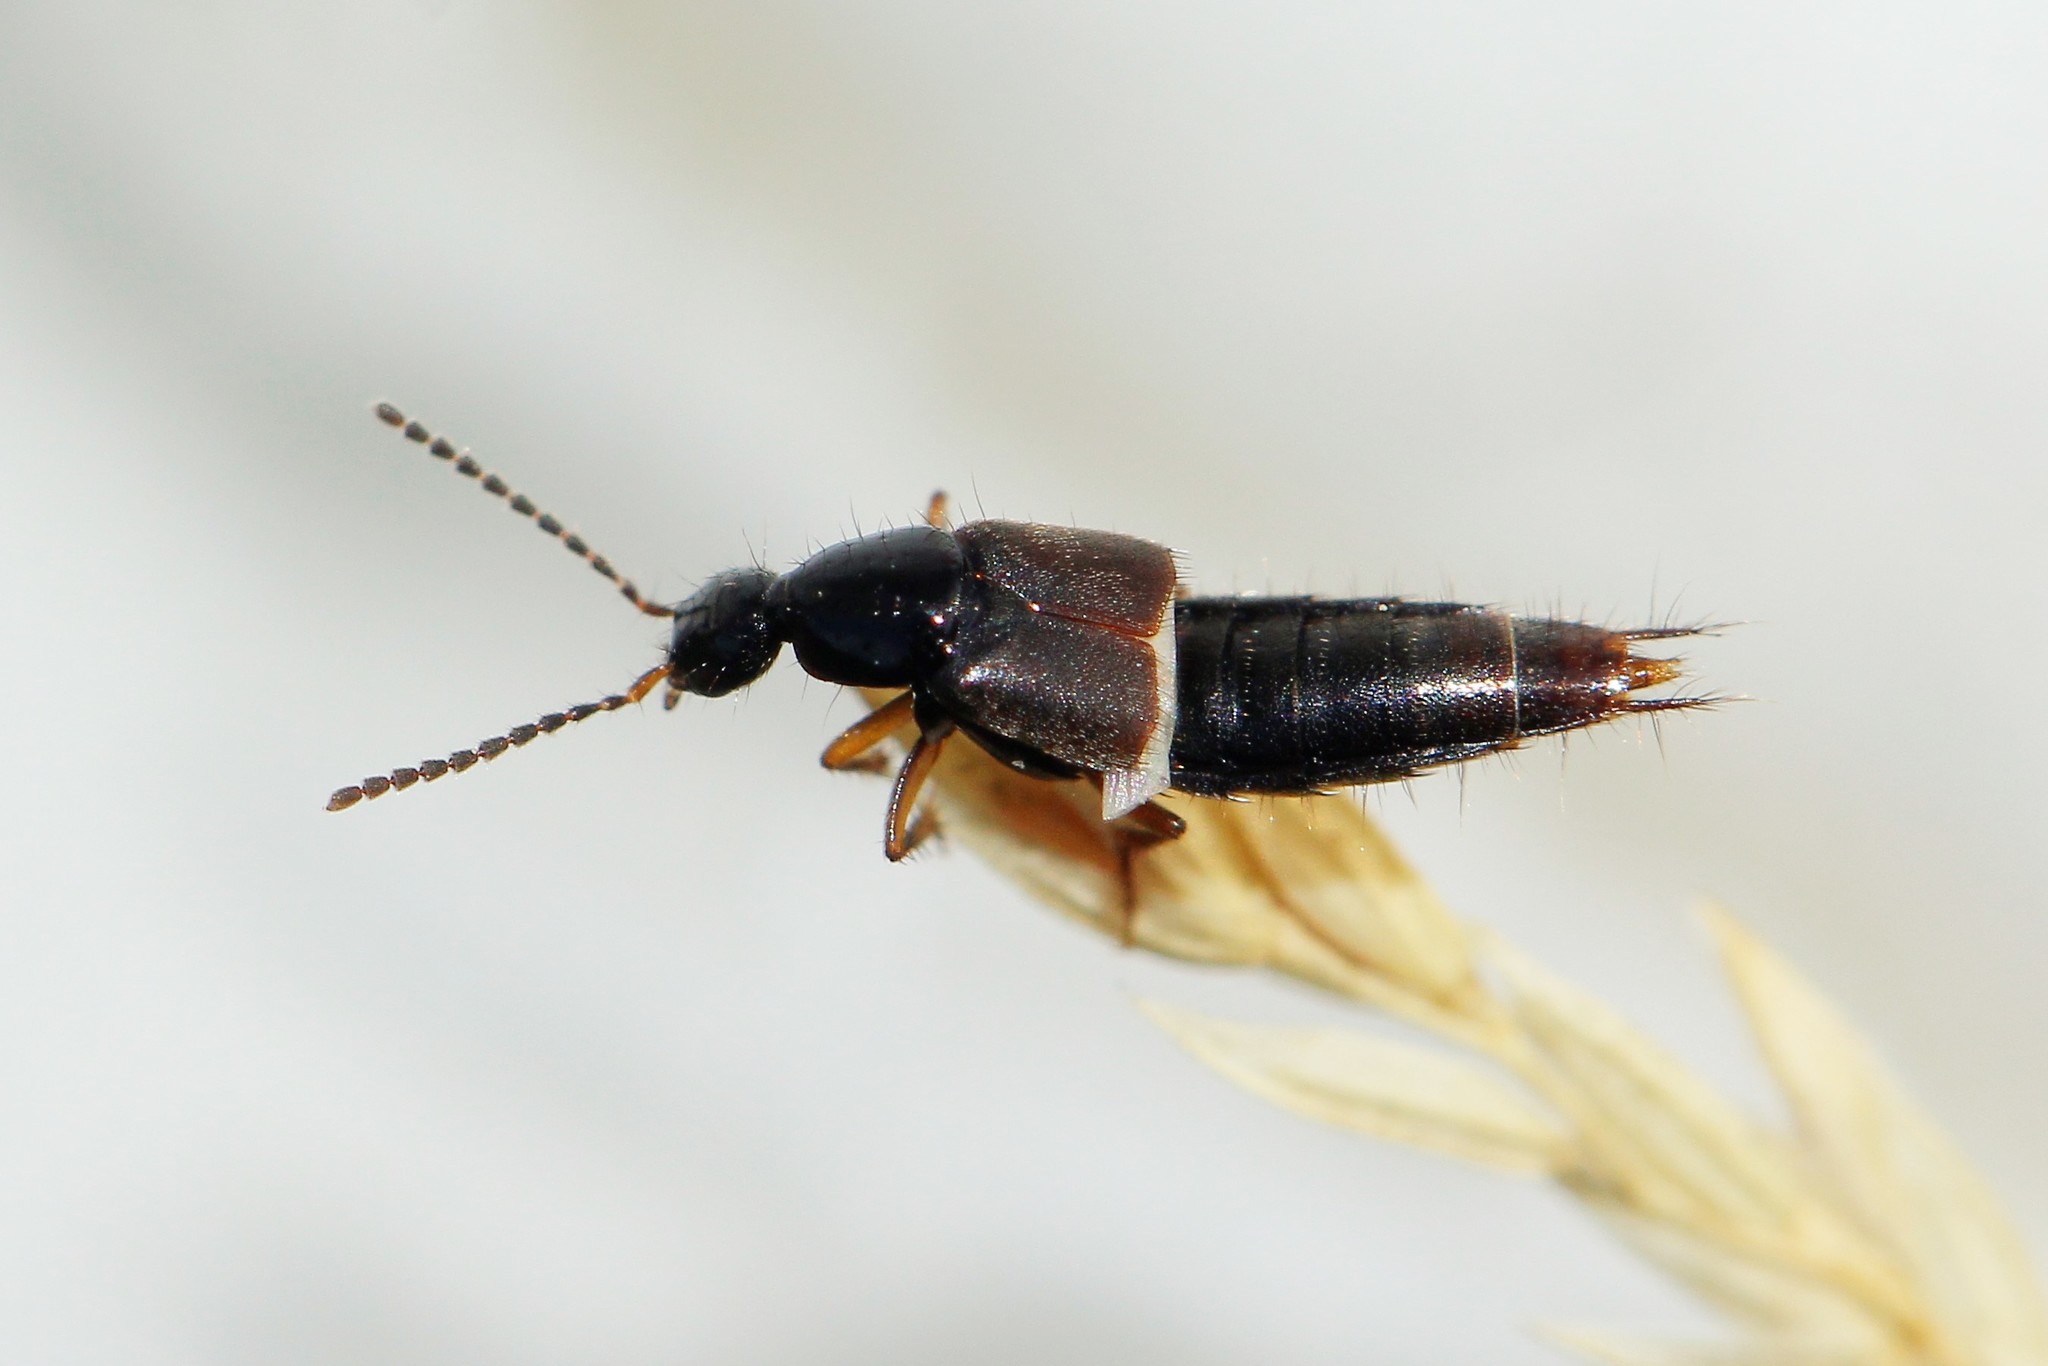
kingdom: Animalia
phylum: Arthropoda
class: Insecta
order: Coleoptera
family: Staphylinidae
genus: Philonthus
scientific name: Philonthus fumarius
